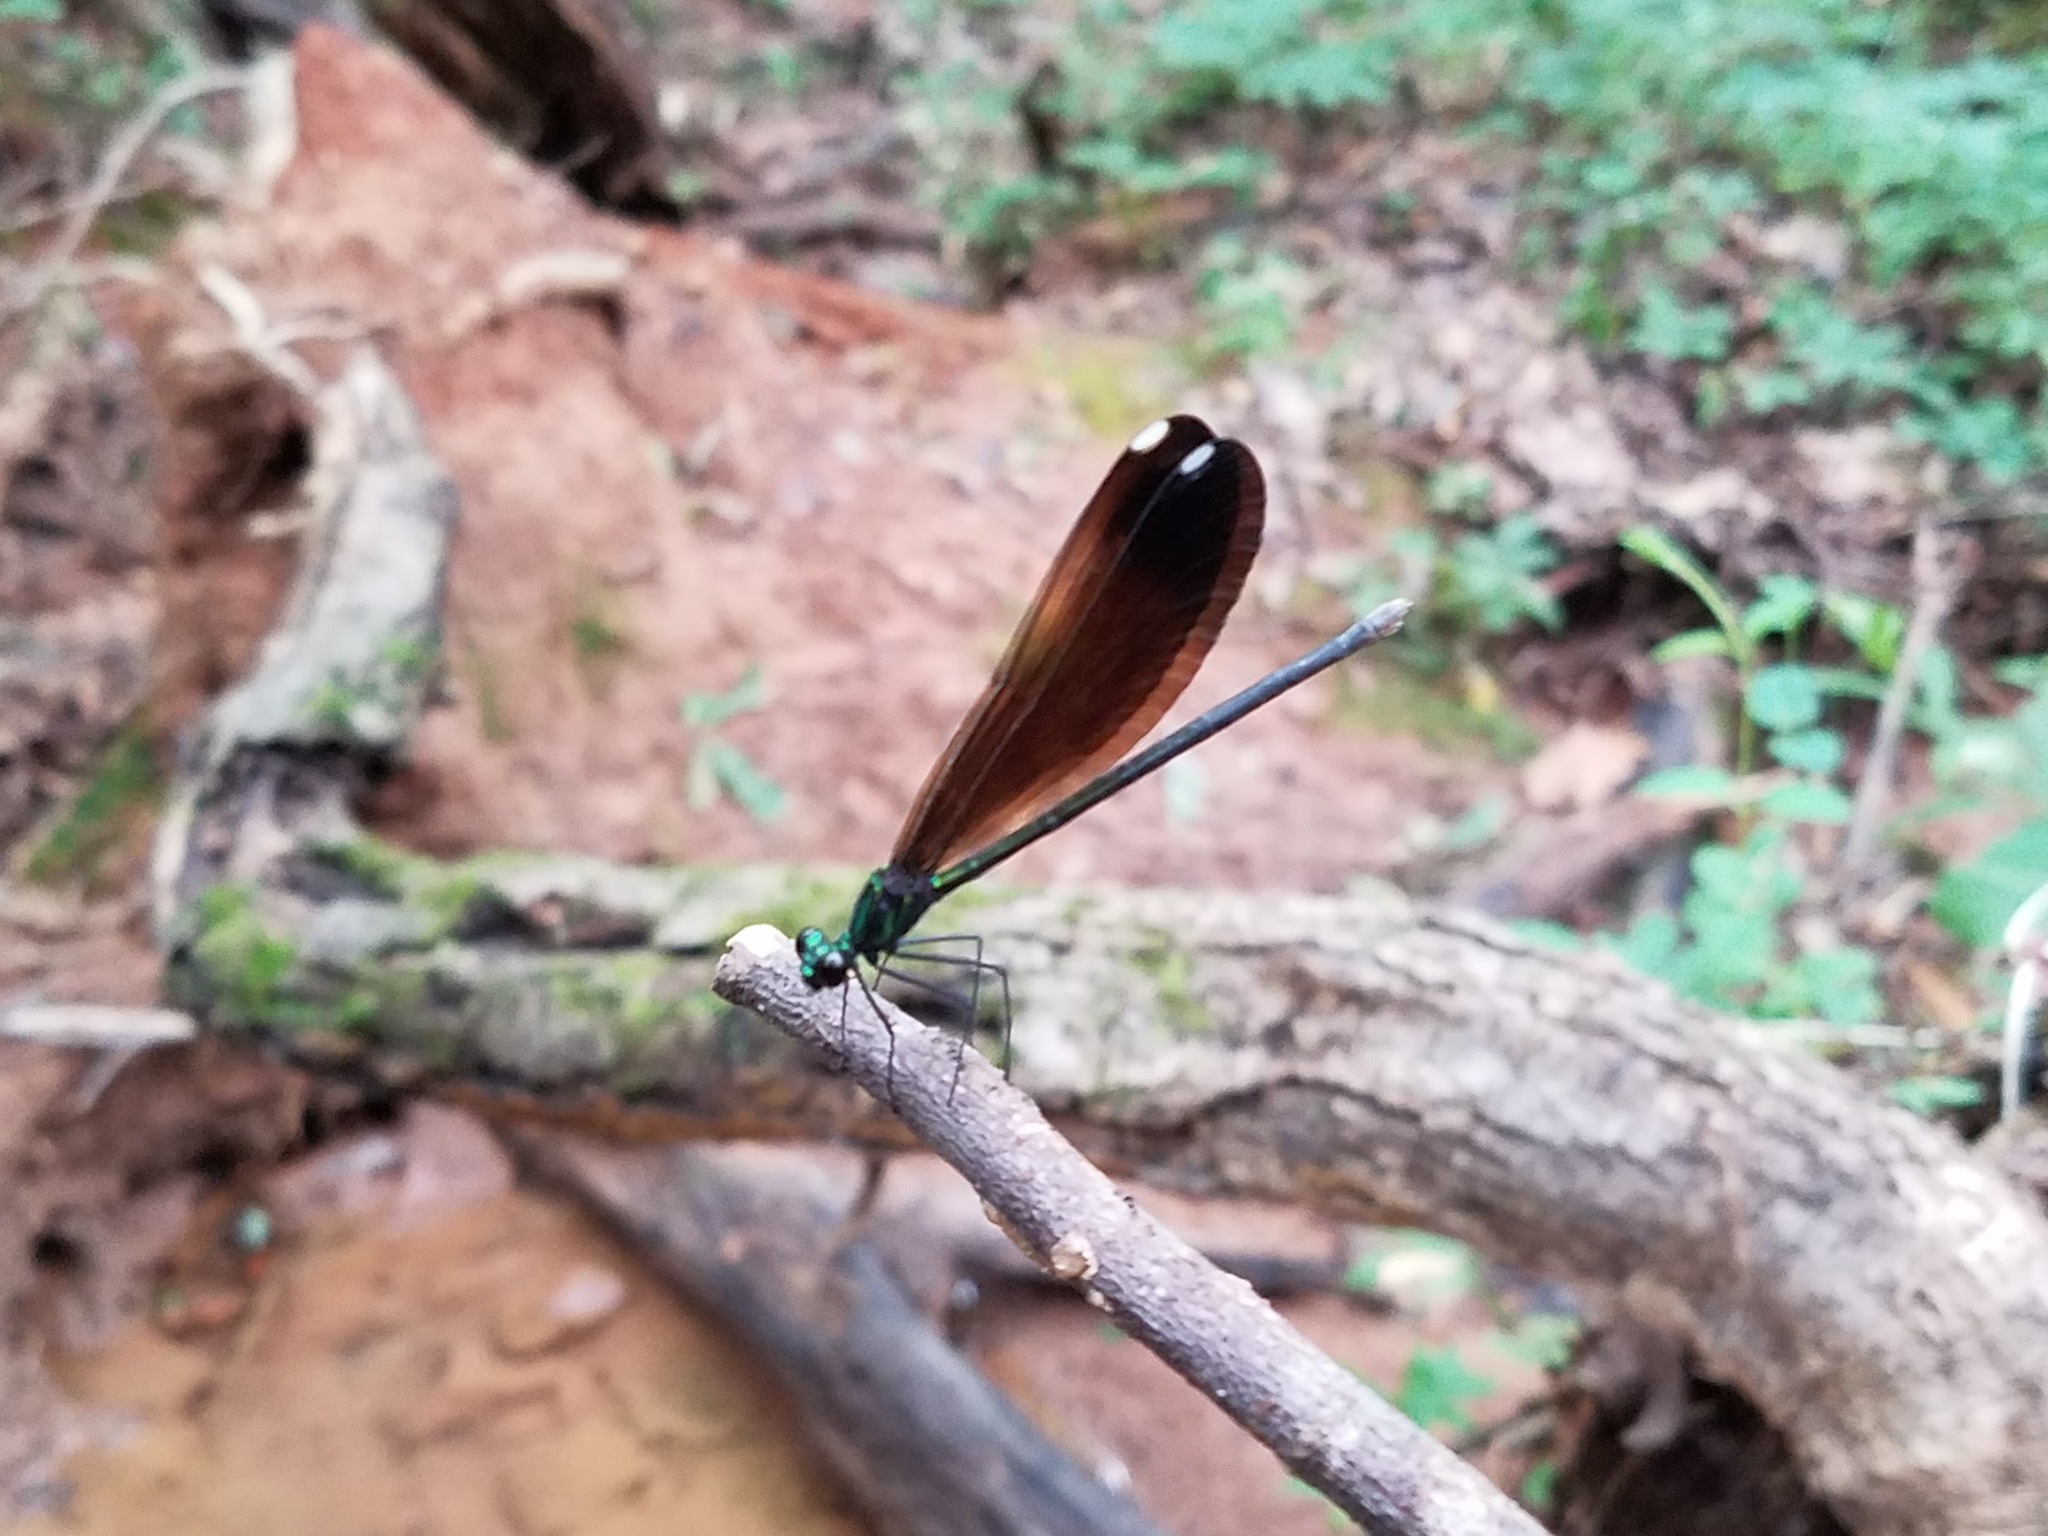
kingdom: Animalia
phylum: Arthropoda
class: Insecta
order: Odonata
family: Calopterygidae
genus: Calopteryx
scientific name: Calopteryx maculata
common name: Ebony jewelwing
